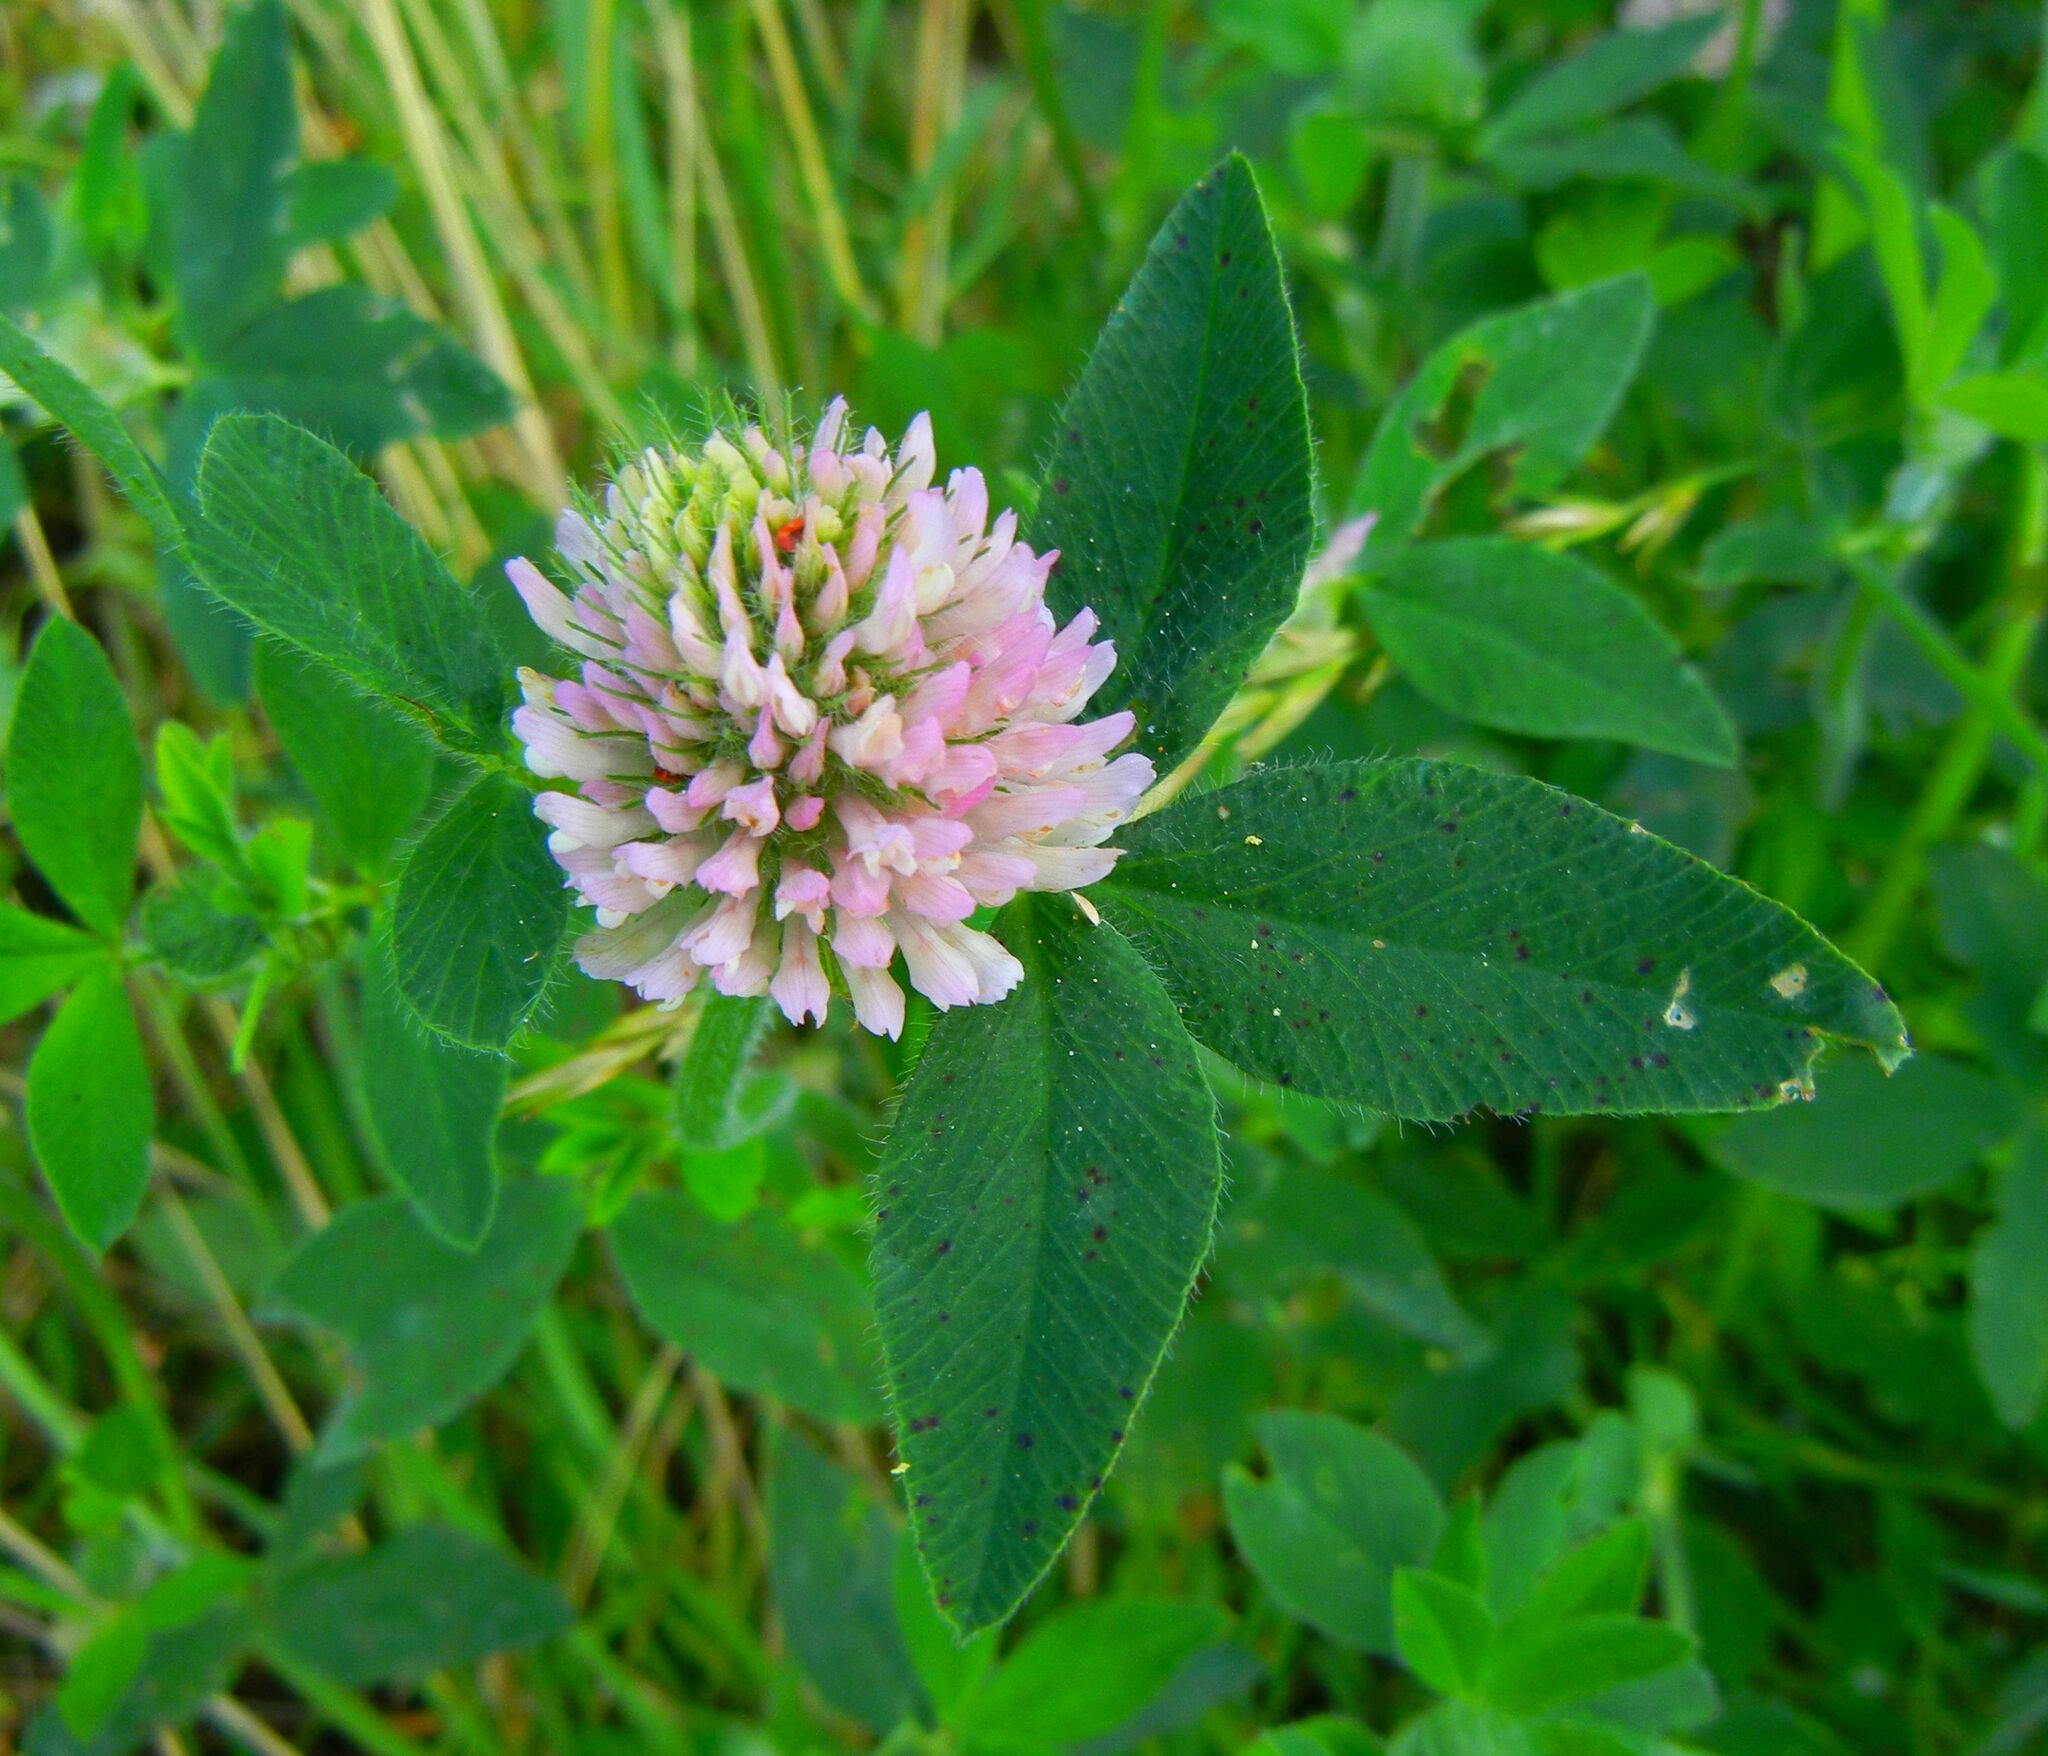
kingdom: Plantae
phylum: Tracheophyta
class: Magnoliopsida
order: Fabales
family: Fabaceae
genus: Trifolium
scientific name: Trifolium pratense
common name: Red clover
